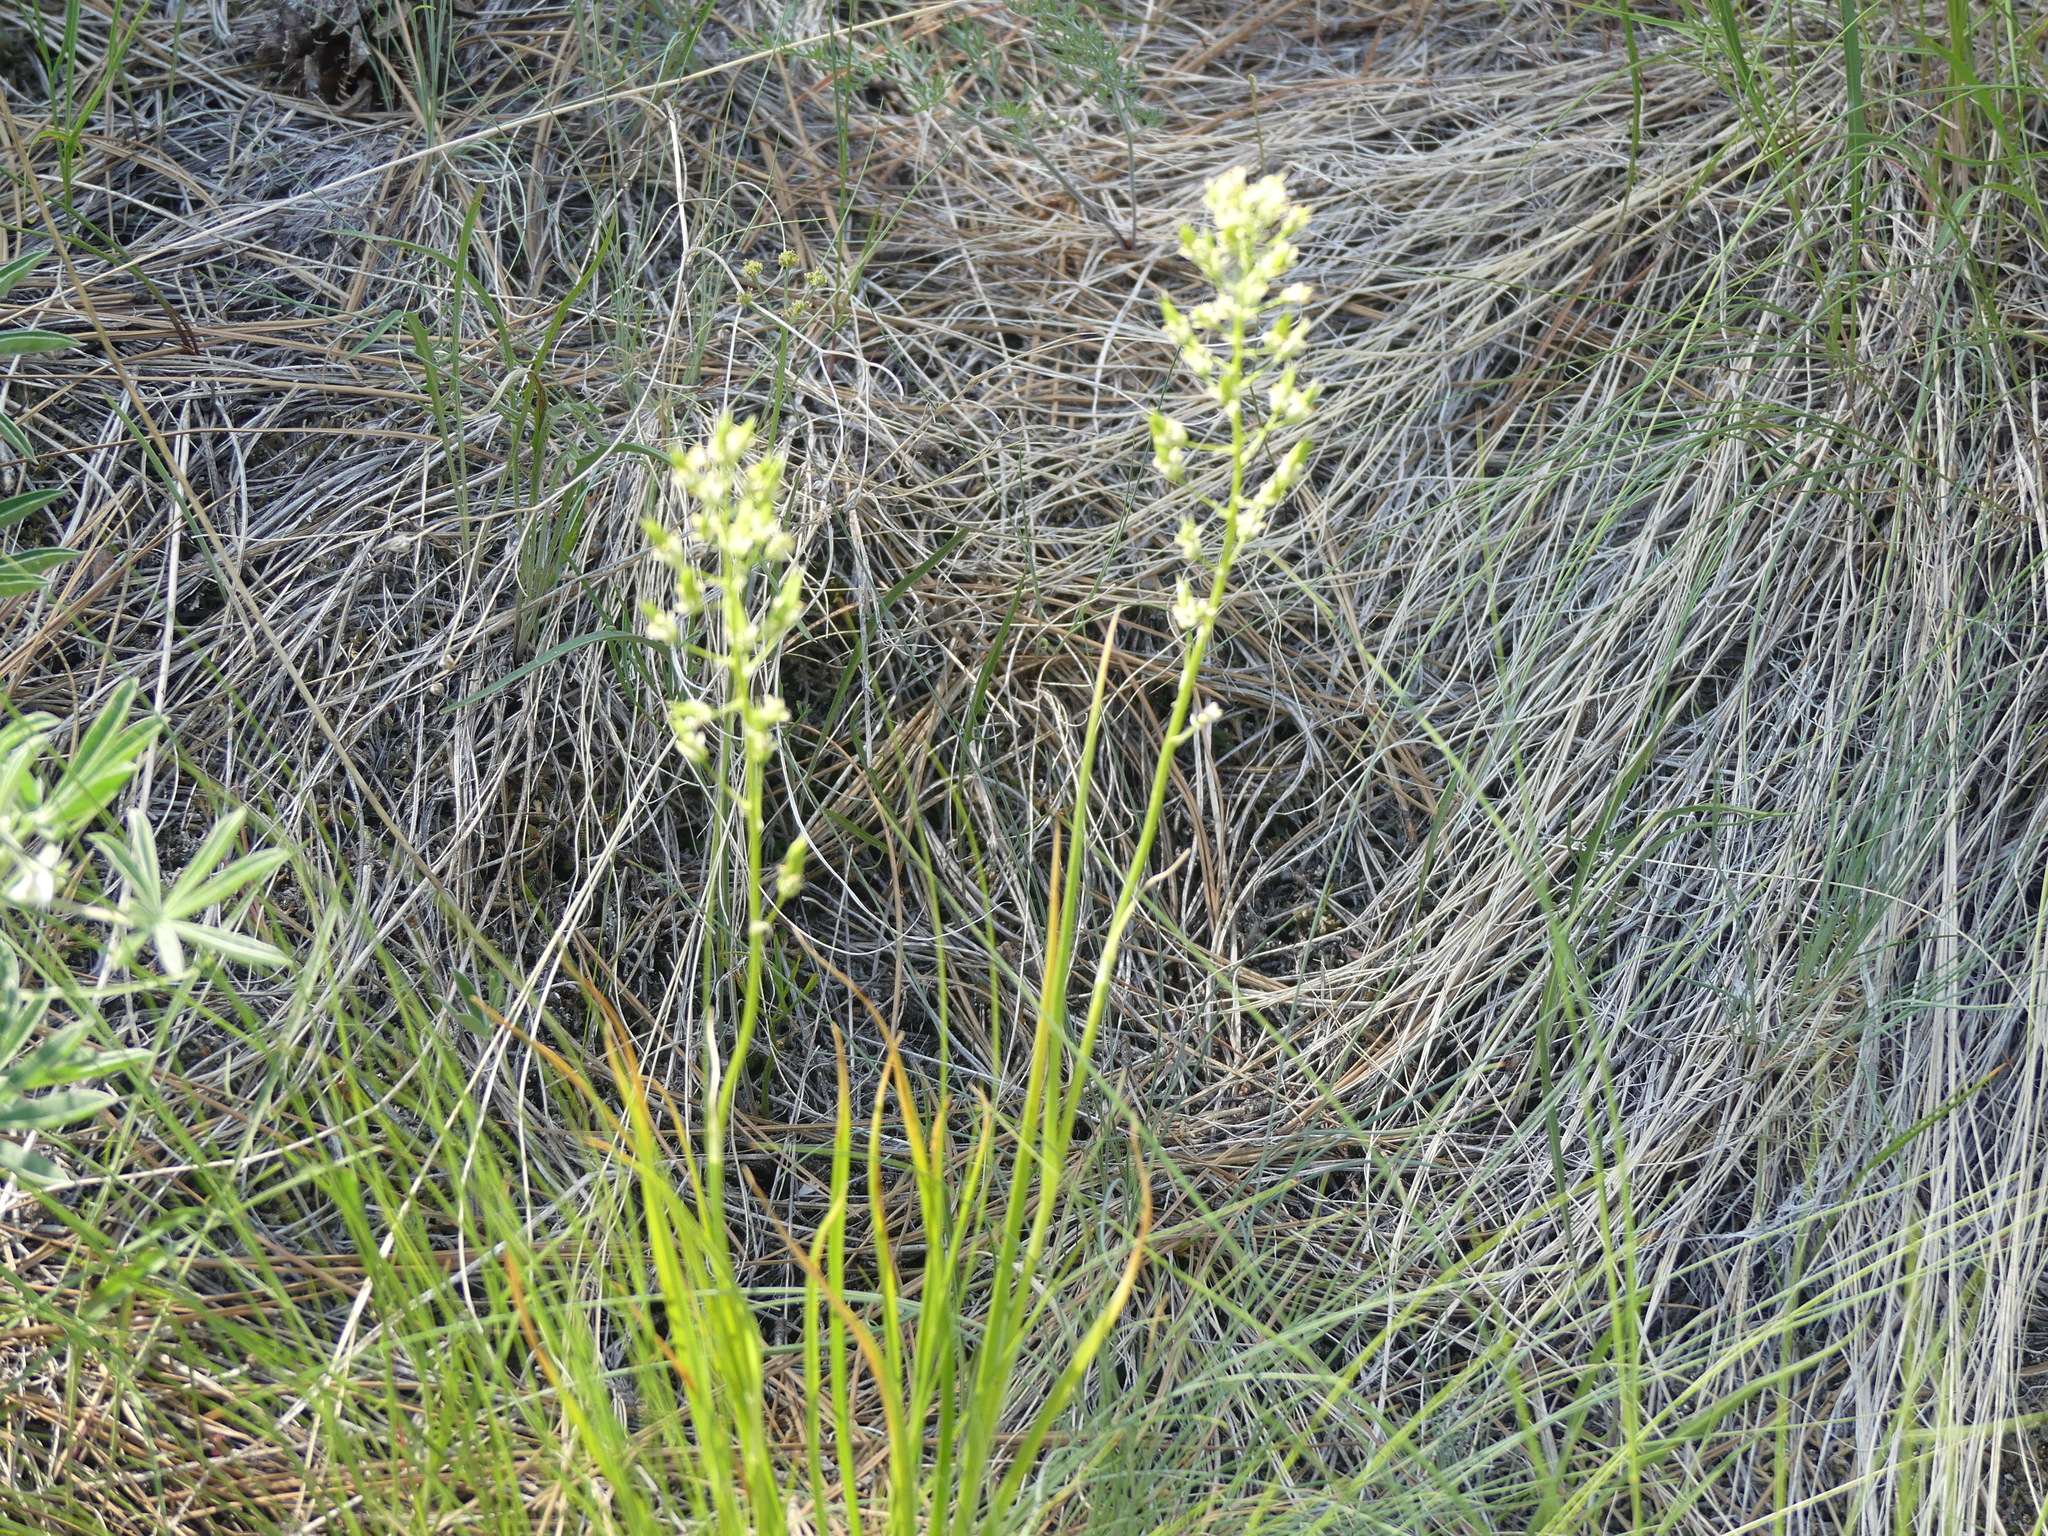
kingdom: Plantae
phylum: Tracheophyta
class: Liliopsida
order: Liliales
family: Melanthiaceae
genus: Toxicoscordion
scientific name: Toxicoscordion venenosum
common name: Meadow death camas
